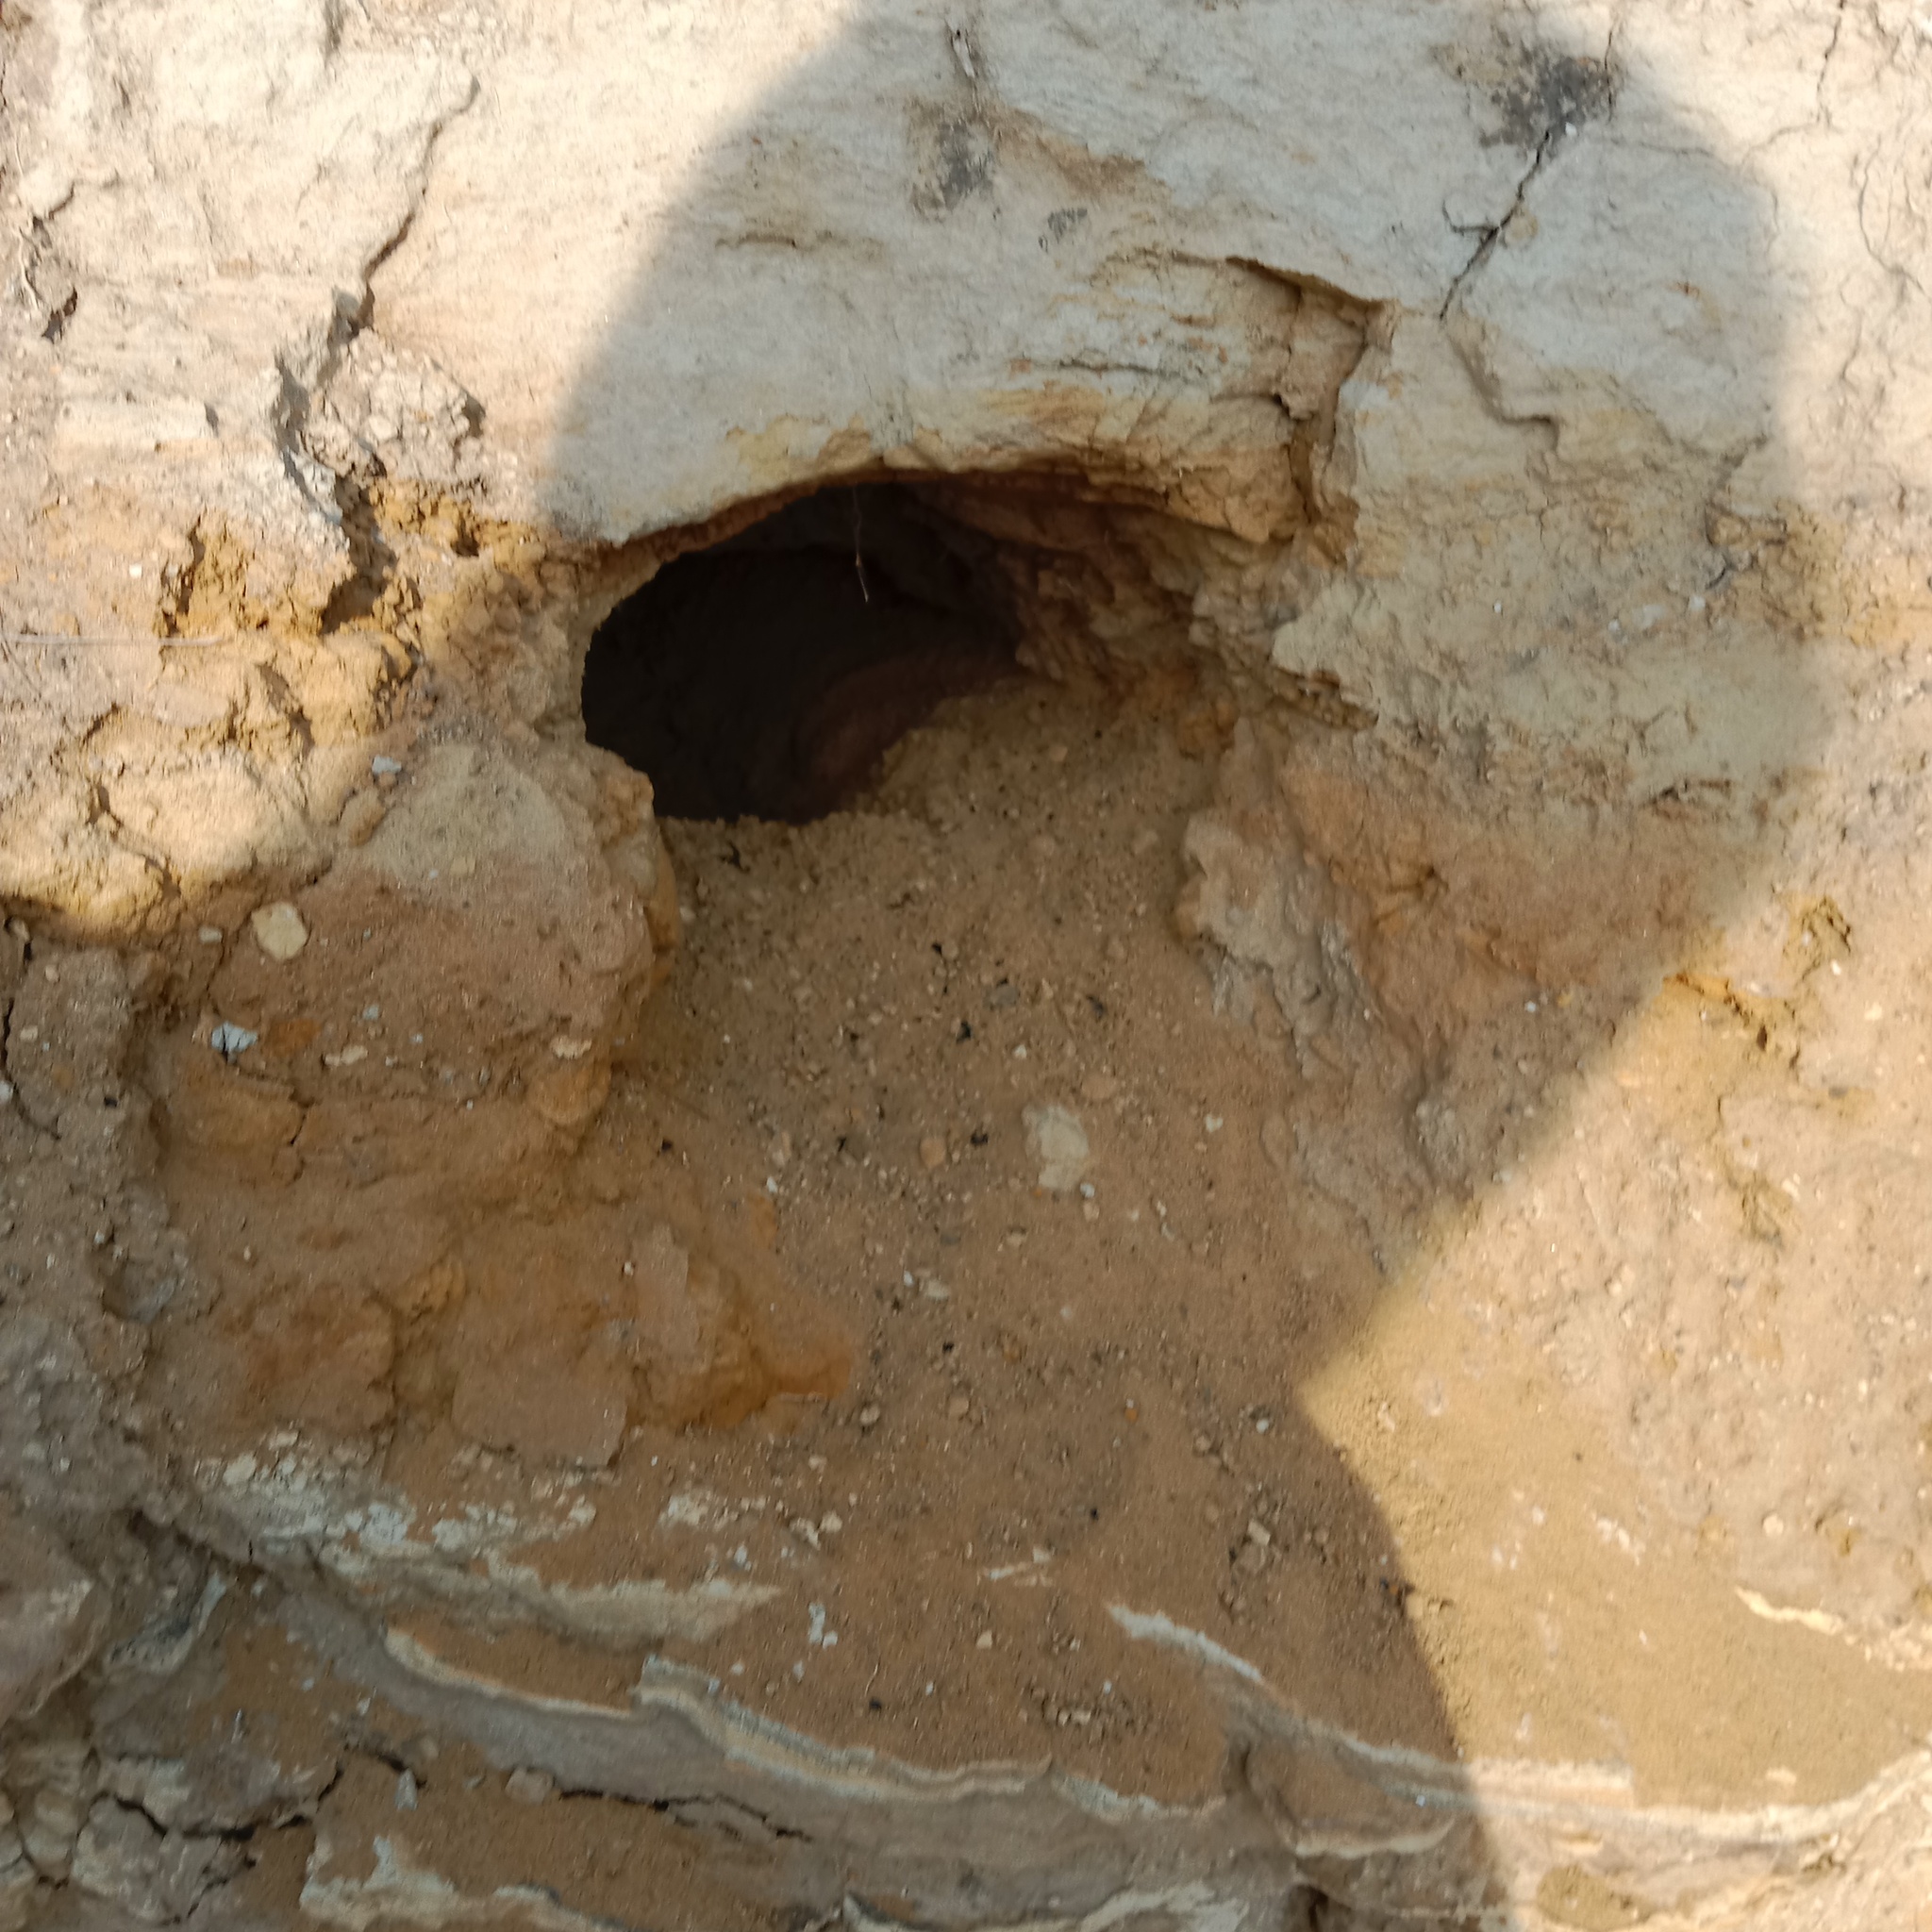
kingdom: Animalia
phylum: Chordata
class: Aves
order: Coraciiformes
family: Meropidae
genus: Merops
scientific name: Merops apiaster
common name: European bee-eater
